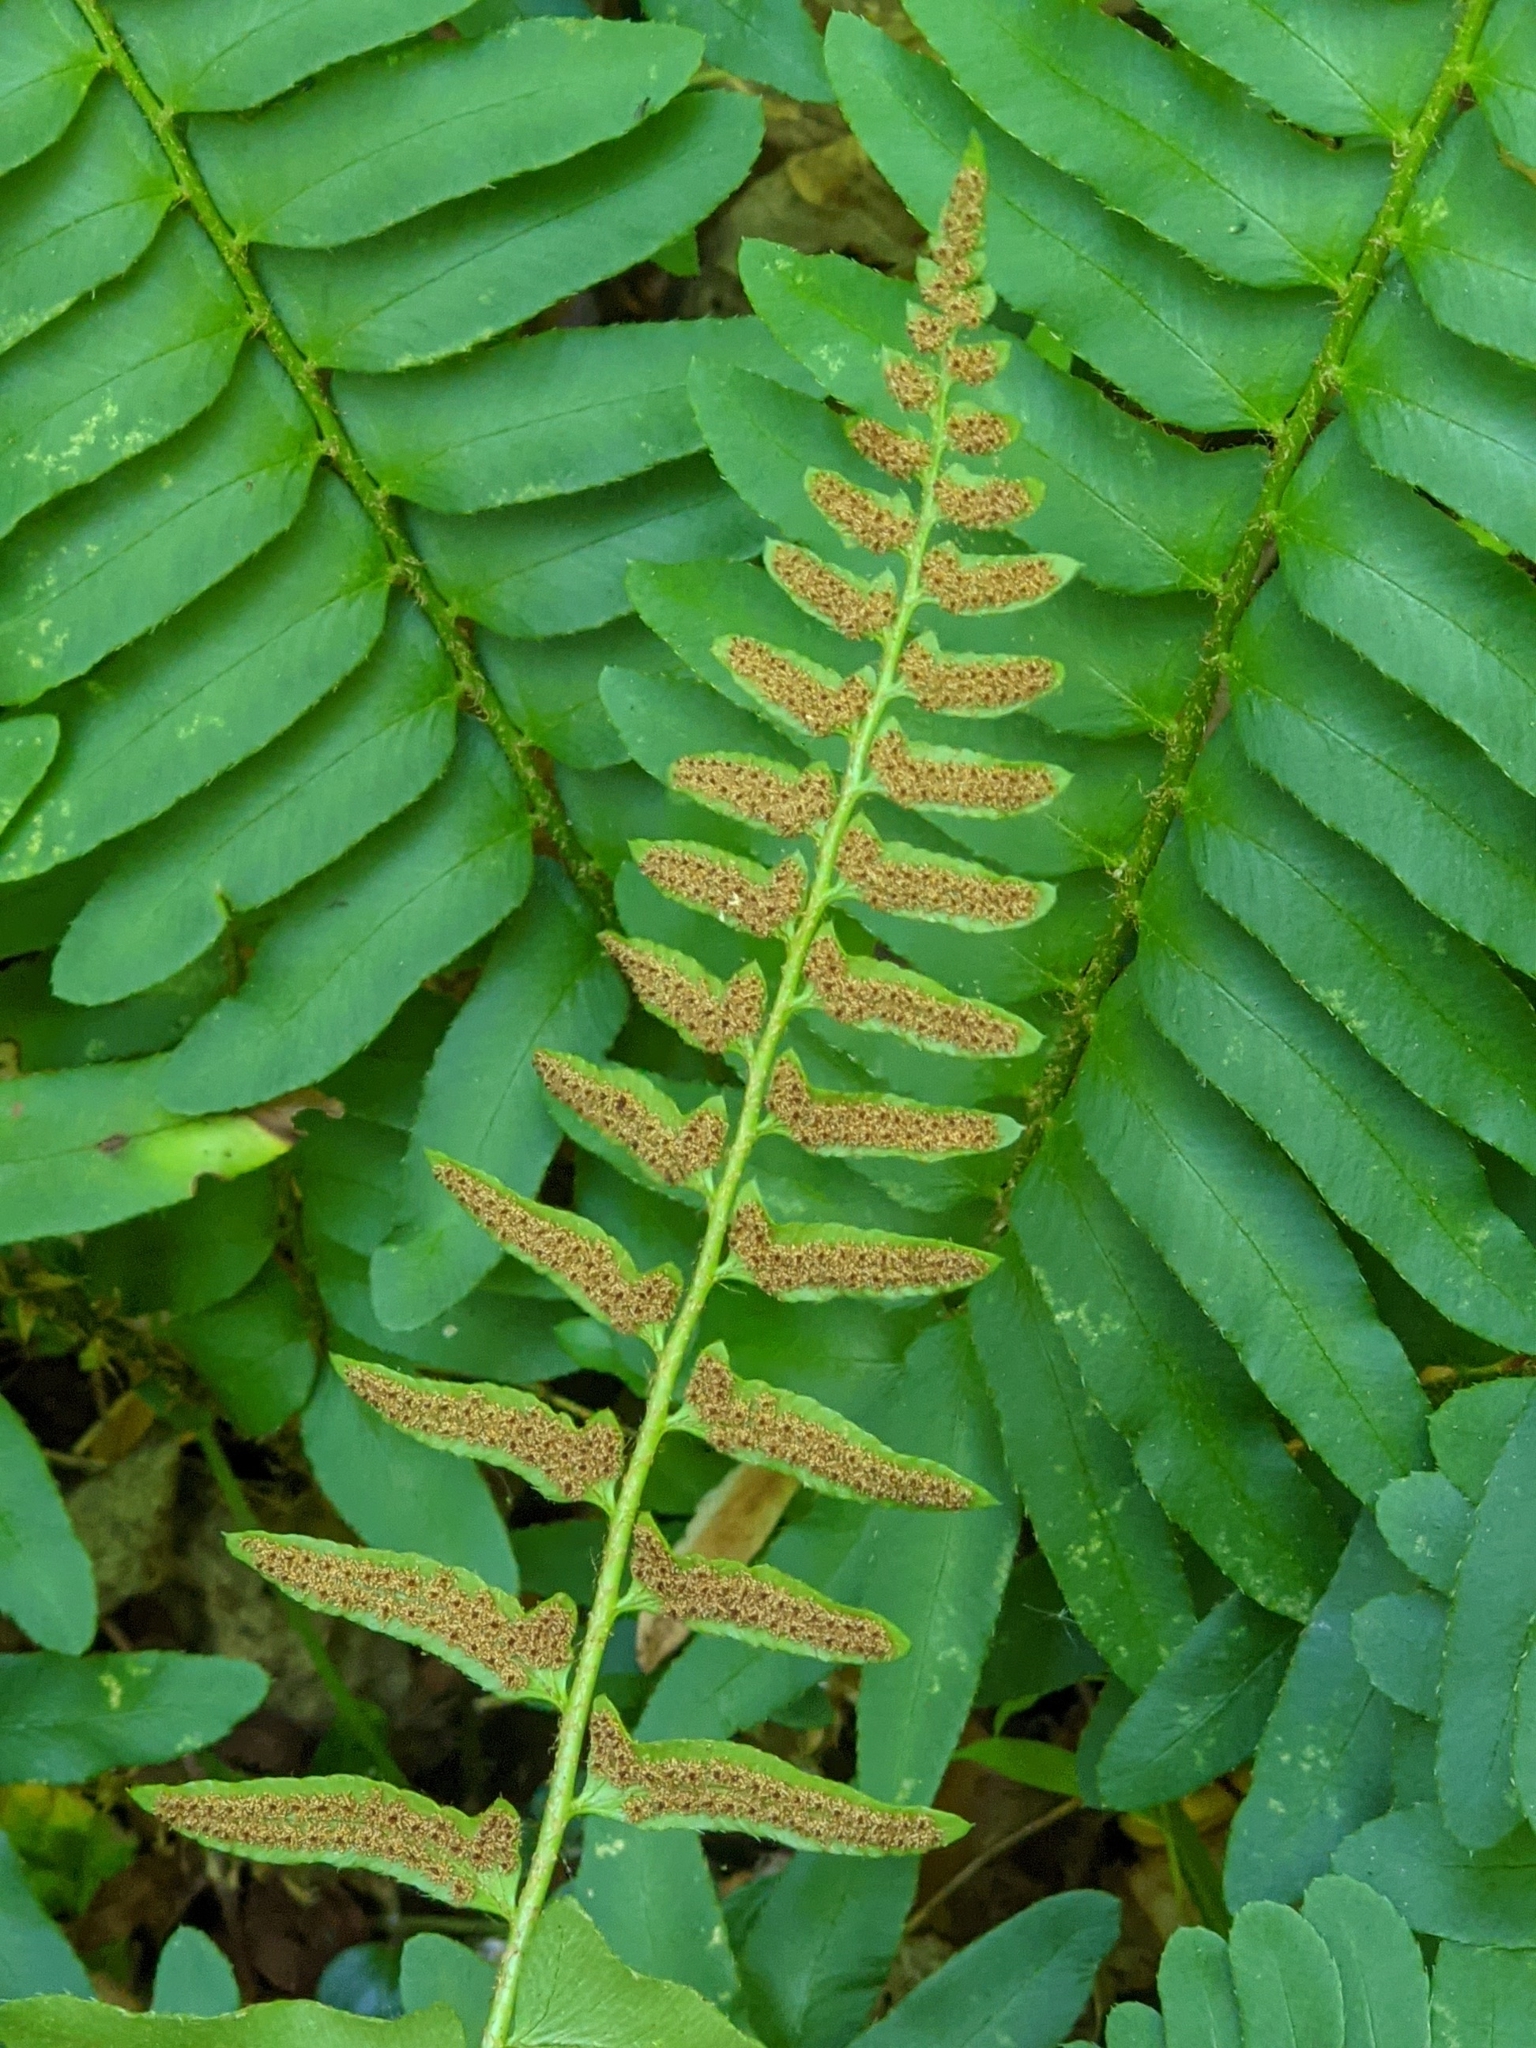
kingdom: Plantae
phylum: Tracheophyta
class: Polypodiopsida
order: Polypodiales
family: Dryopteridaceae
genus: Polystichum
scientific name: Polystichum acrostichoides
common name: Christmas fern
